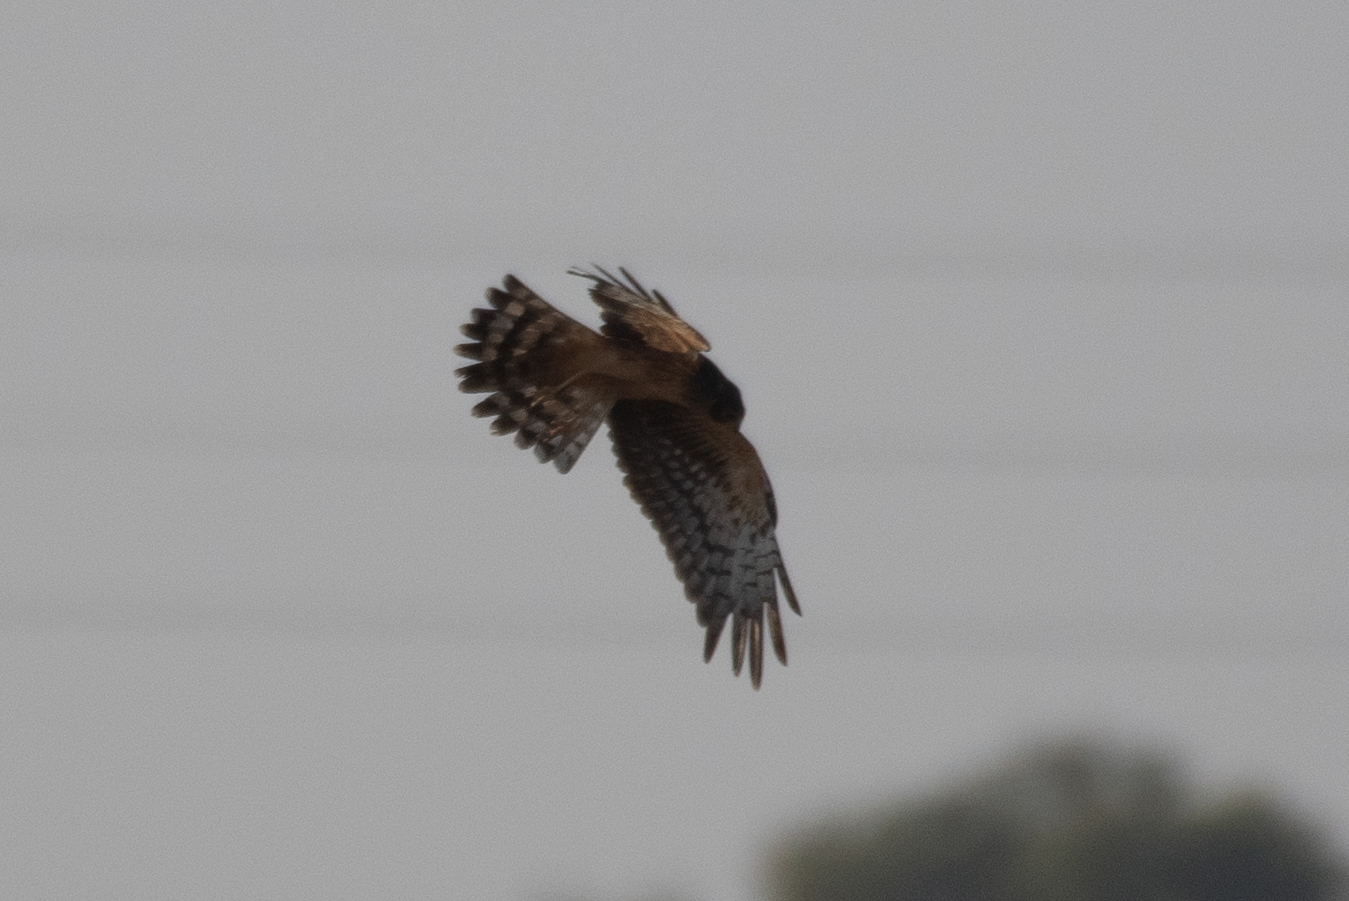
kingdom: Animalia
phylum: Chordata
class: Aves
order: Accipitriformes
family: Accipitridae
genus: Circus
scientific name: Circus cyaneus
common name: Hen harrier
